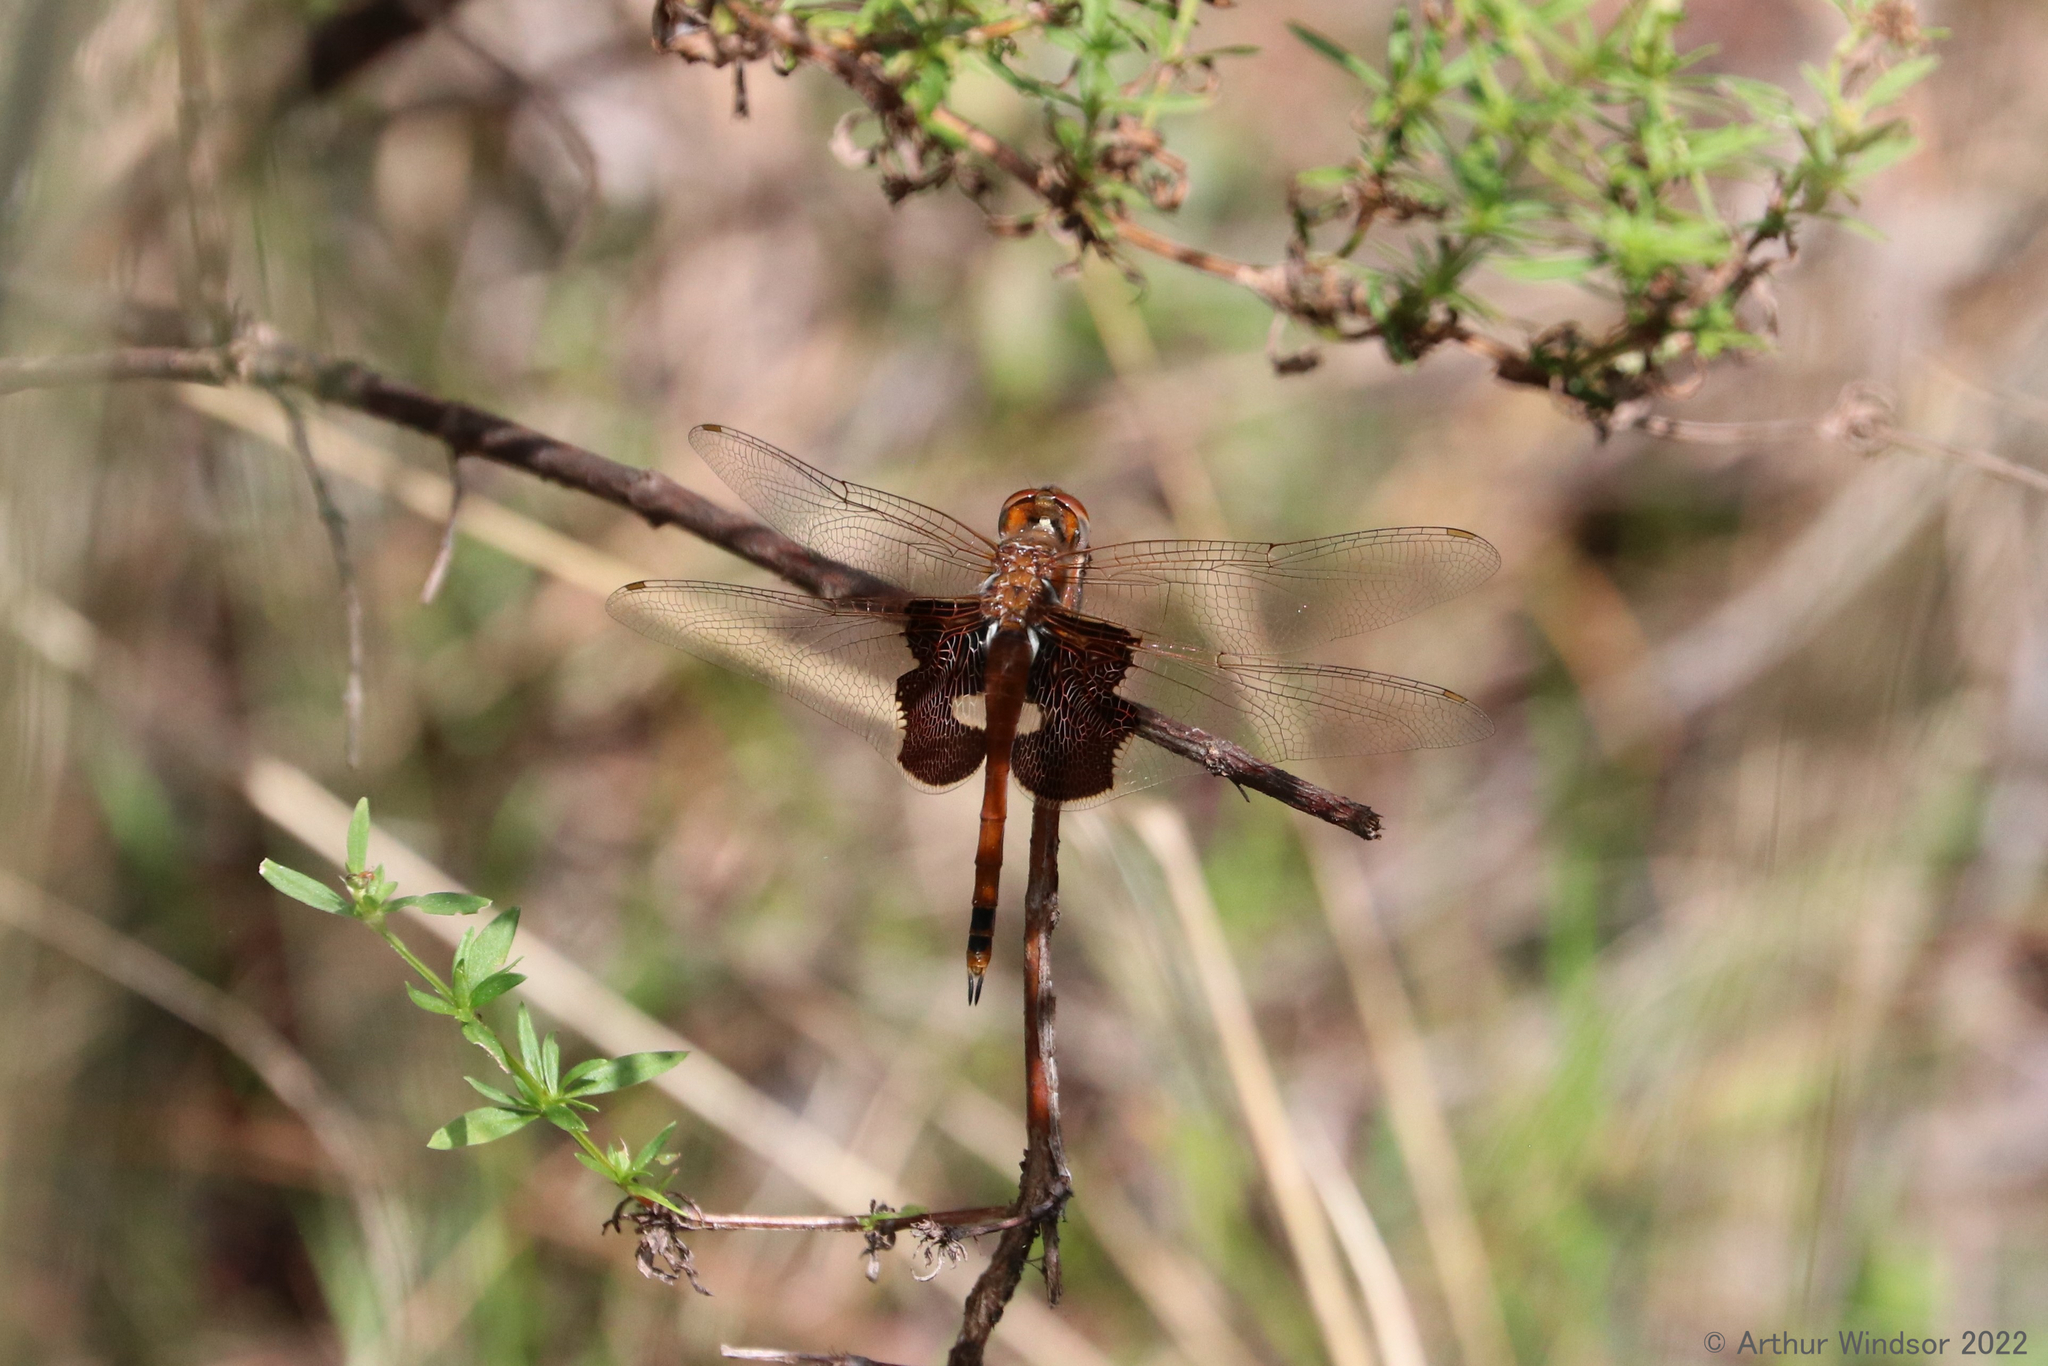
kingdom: Animalia
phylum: Arthropoda
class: Insecta
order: Odonata
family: Libellulidae
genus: Tramea
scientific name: Tramea carolina
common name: Carolina saddlebags
